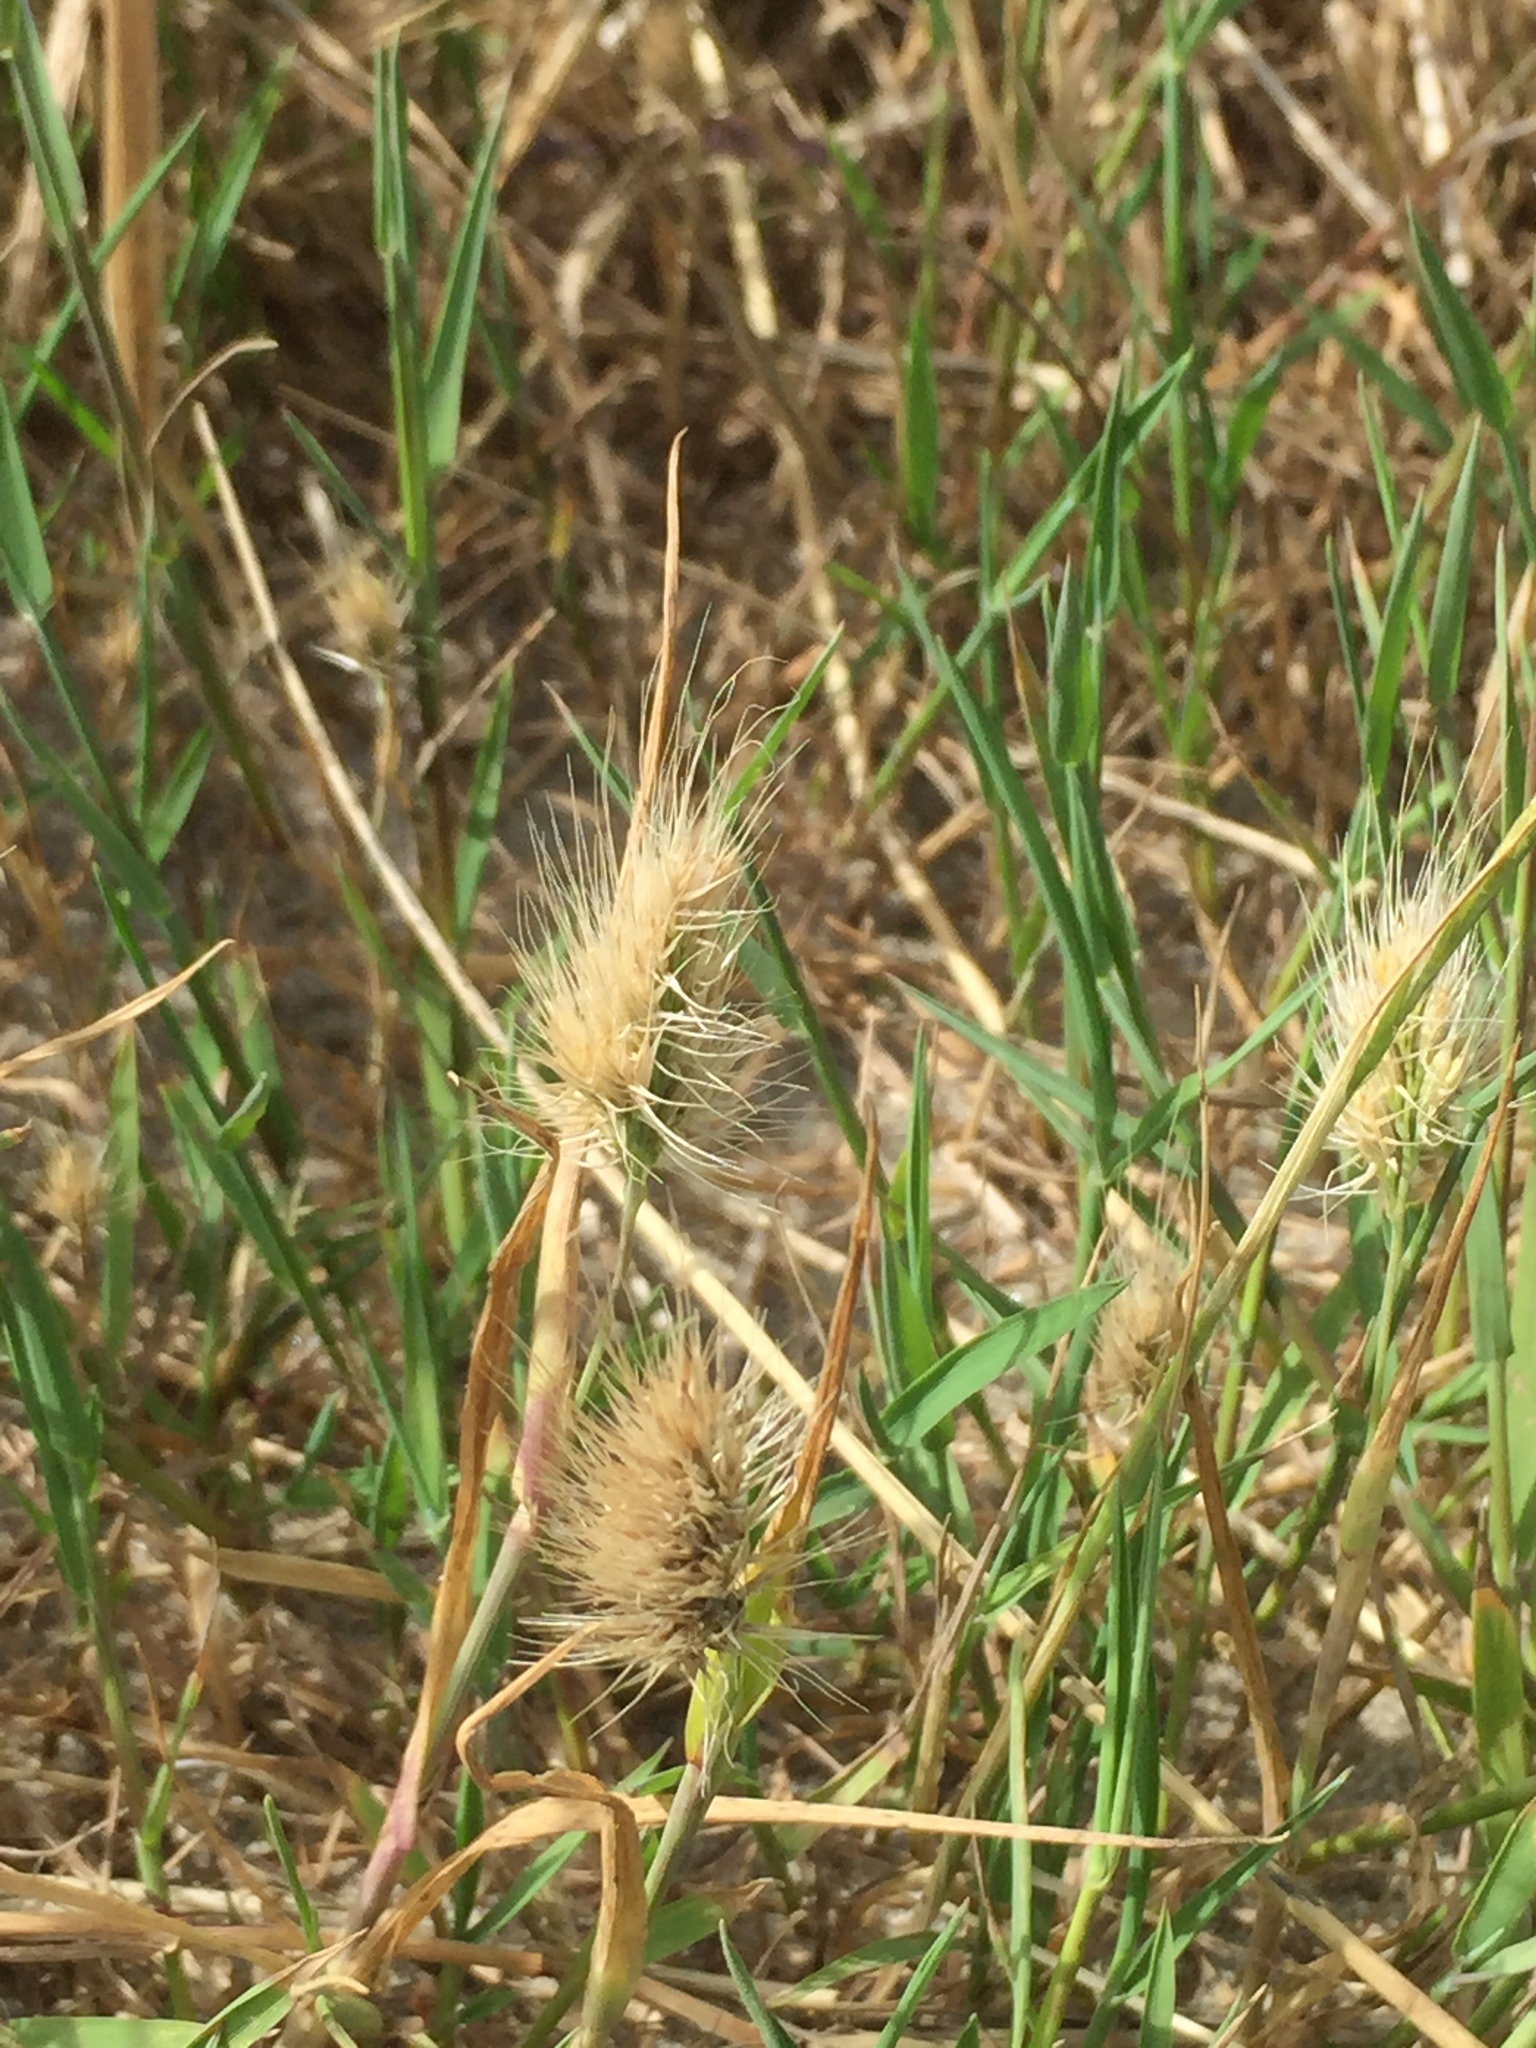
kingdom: Plantae
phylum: Tracheophyta
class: Liliopsida
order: Poales
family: Poaceae
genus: Cynosurus
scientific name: Cynosurus echinatus
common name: Rough dog's-tail
